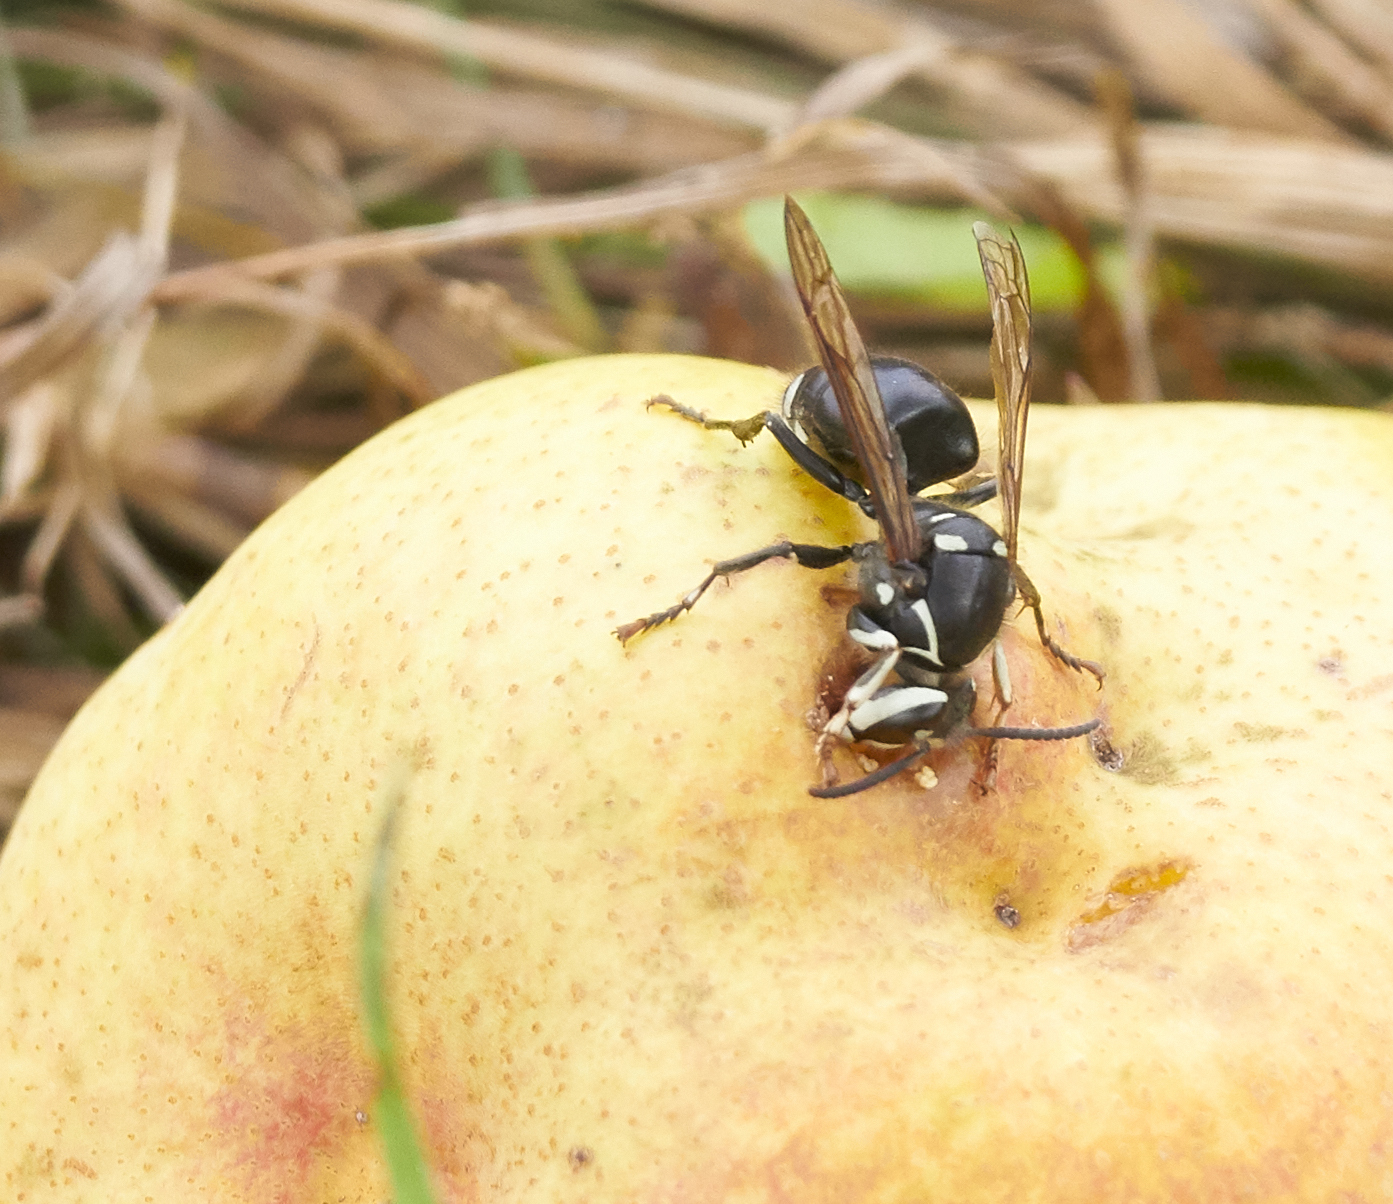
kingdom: Animalia
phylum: Arthropoda
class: Insecta
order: Hymenoptera
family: Vespidae
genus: Dolichovespula
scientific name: Dolichovespula maculata
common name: Bald-faced hornet
